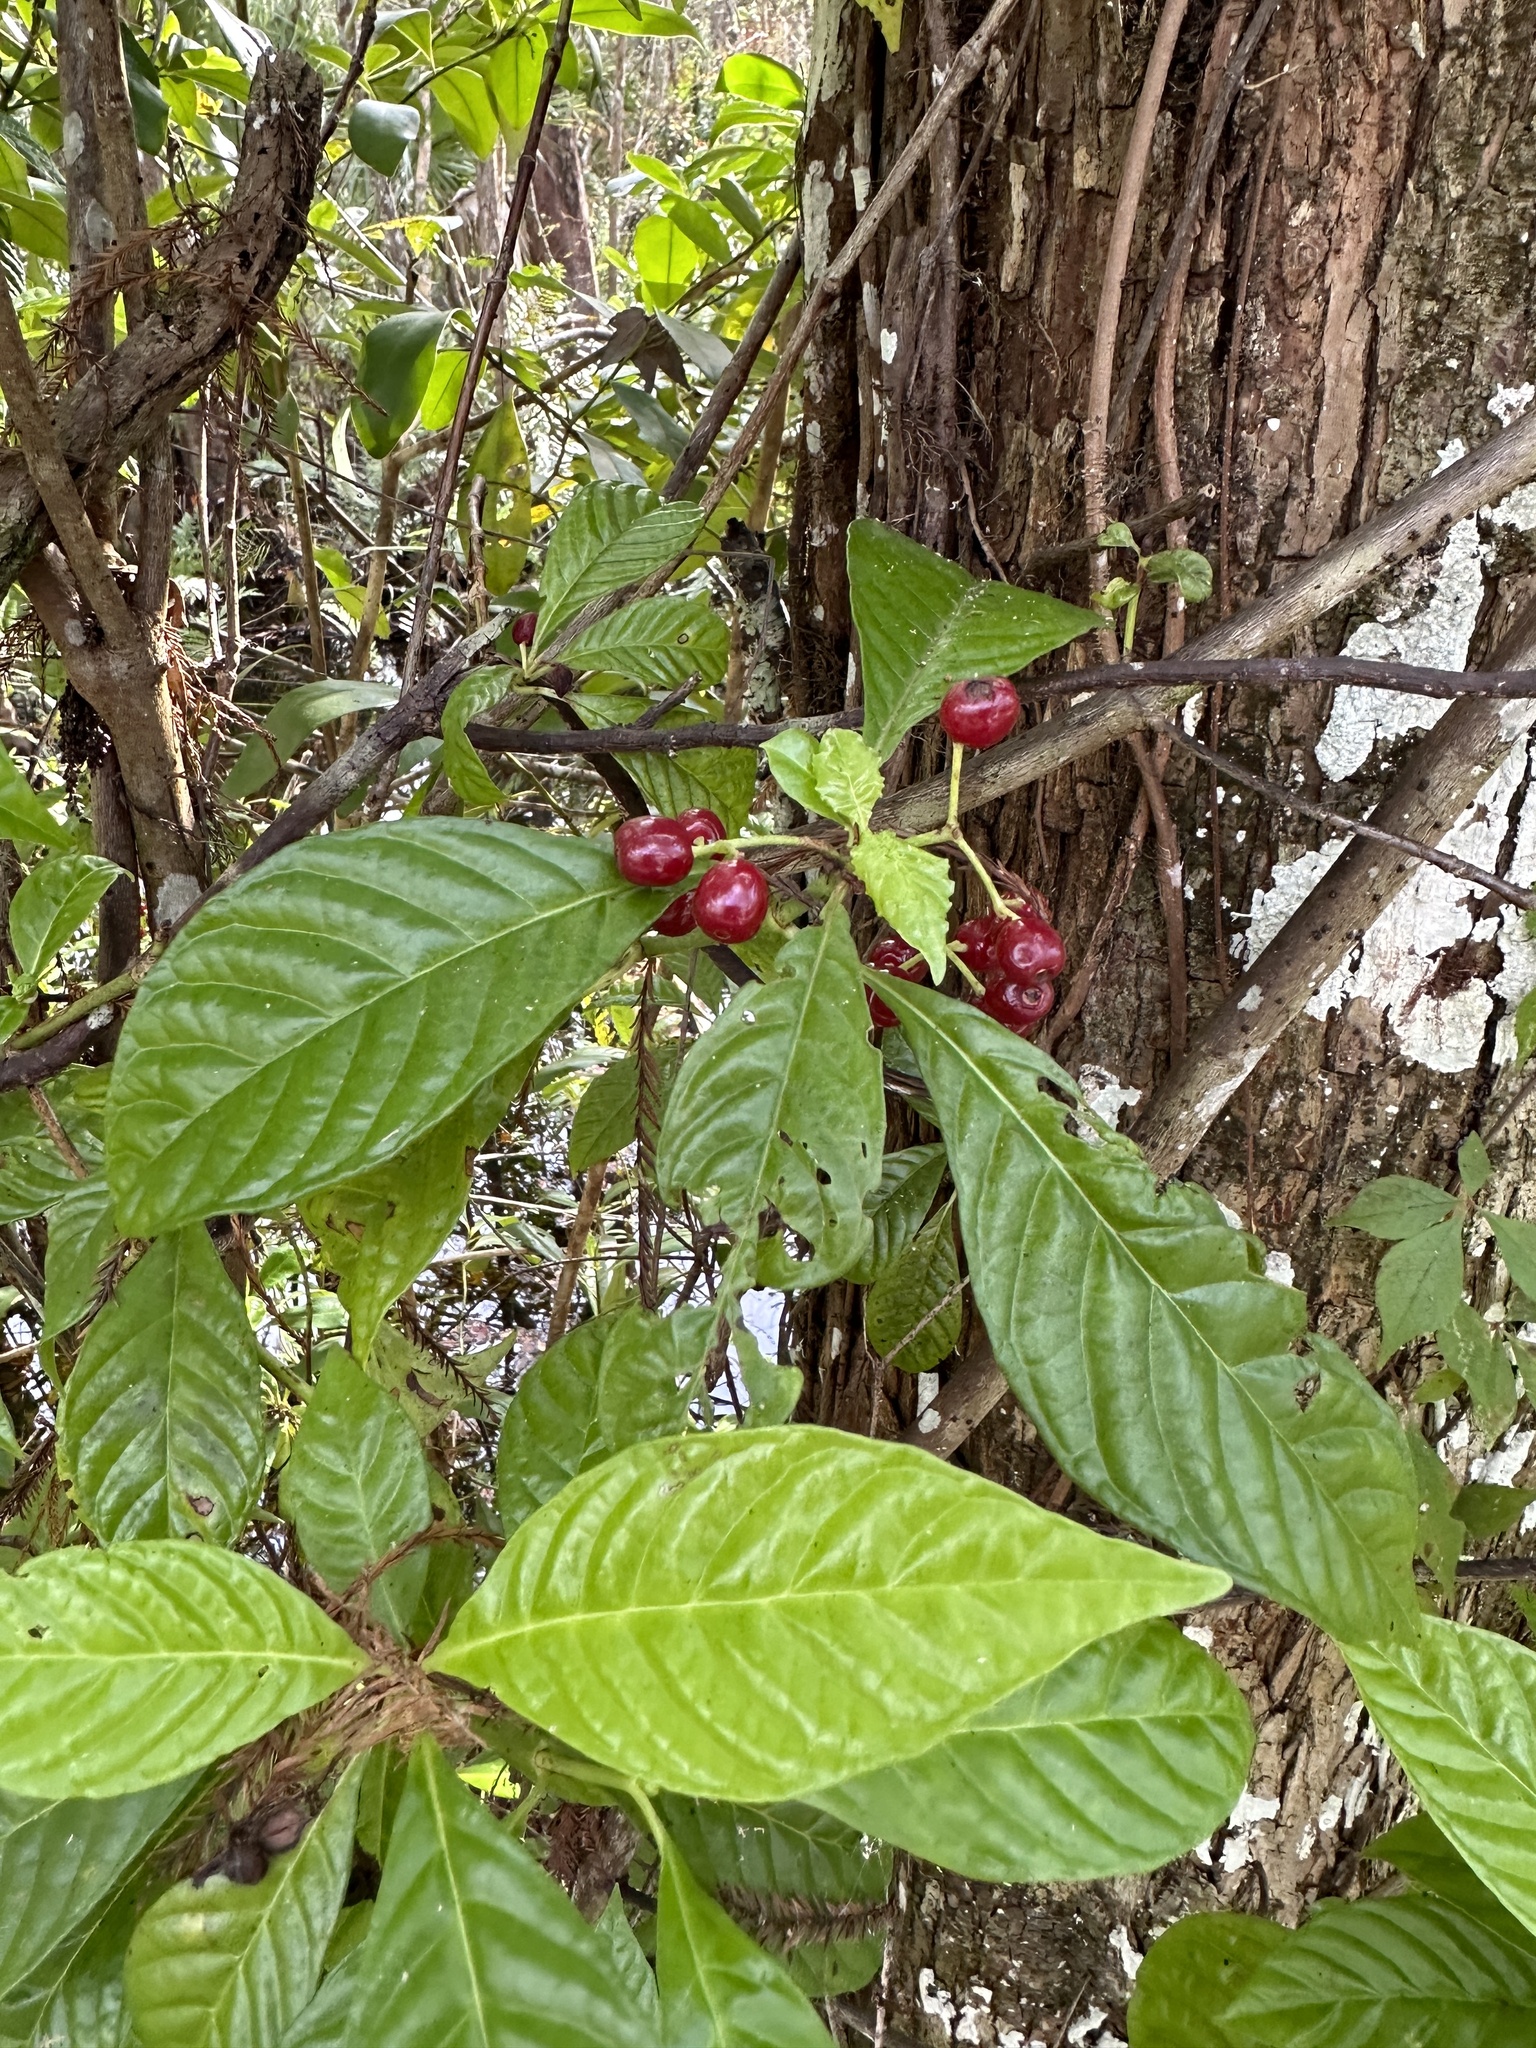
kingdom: Plantae
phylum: Tracheophyta
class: Magnoliopsida
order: Gentianales
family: Rubiaceae
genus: Psychotria
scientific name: Psychotria nervosa
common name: Bastard cankerberry
